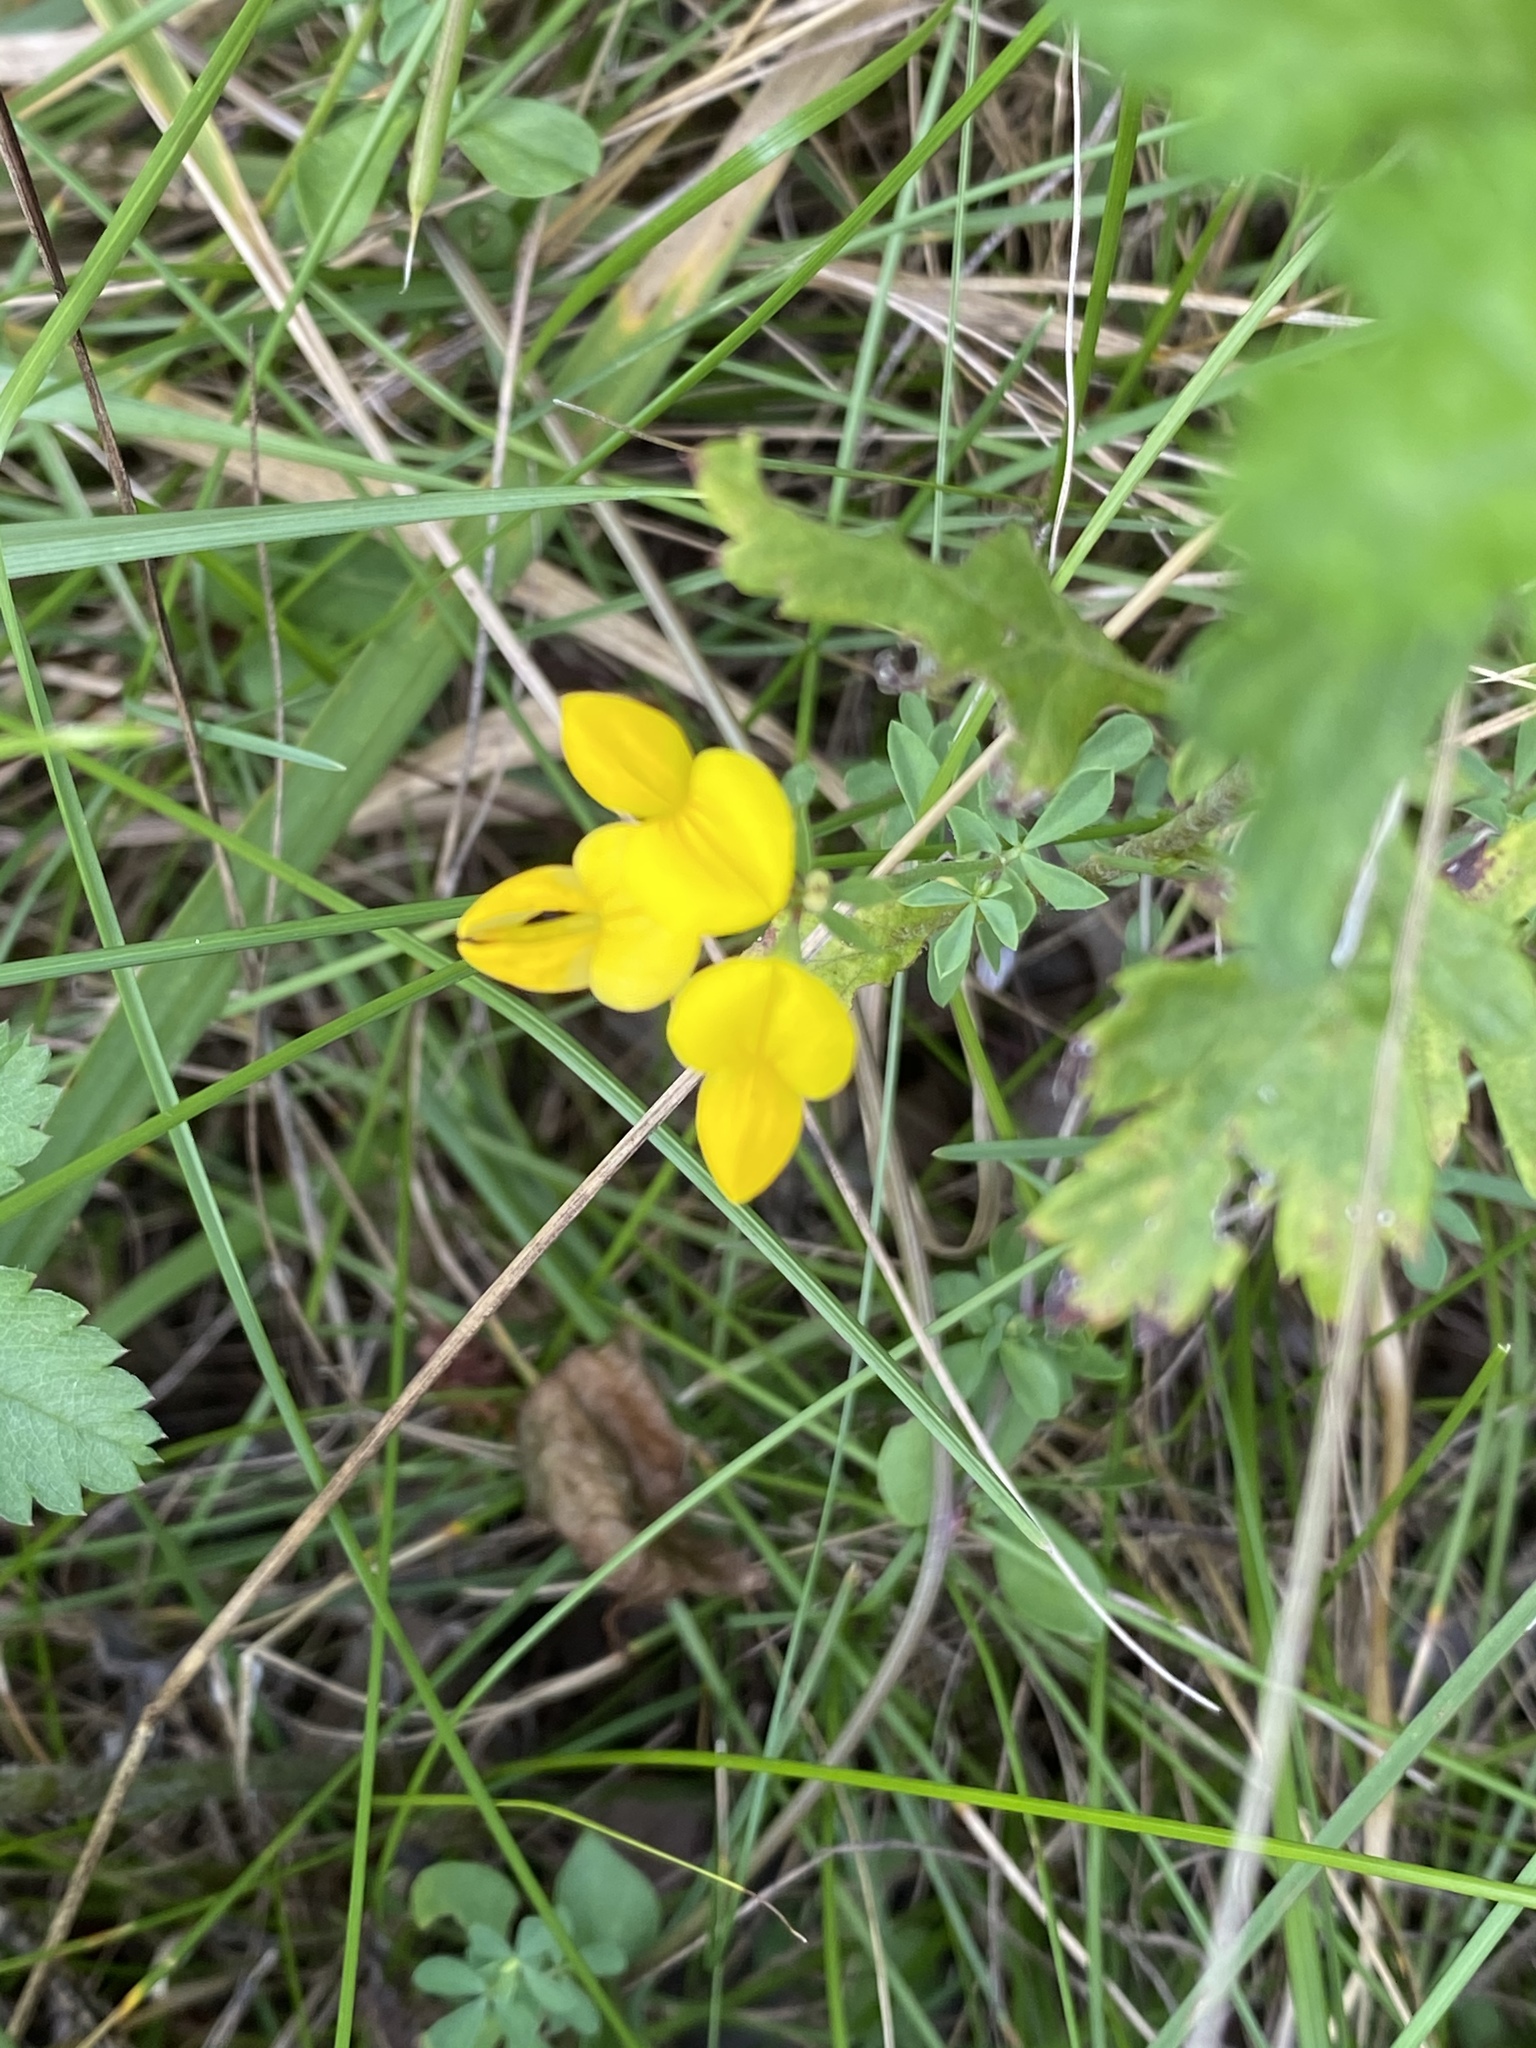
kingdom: Plantae
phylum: Tracheophyta
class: Magnoliopsida
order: Fabales
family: Fabaceae
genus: Lotus
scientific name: Lotus corniculatus
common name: Common bird's-foot-trefoil
